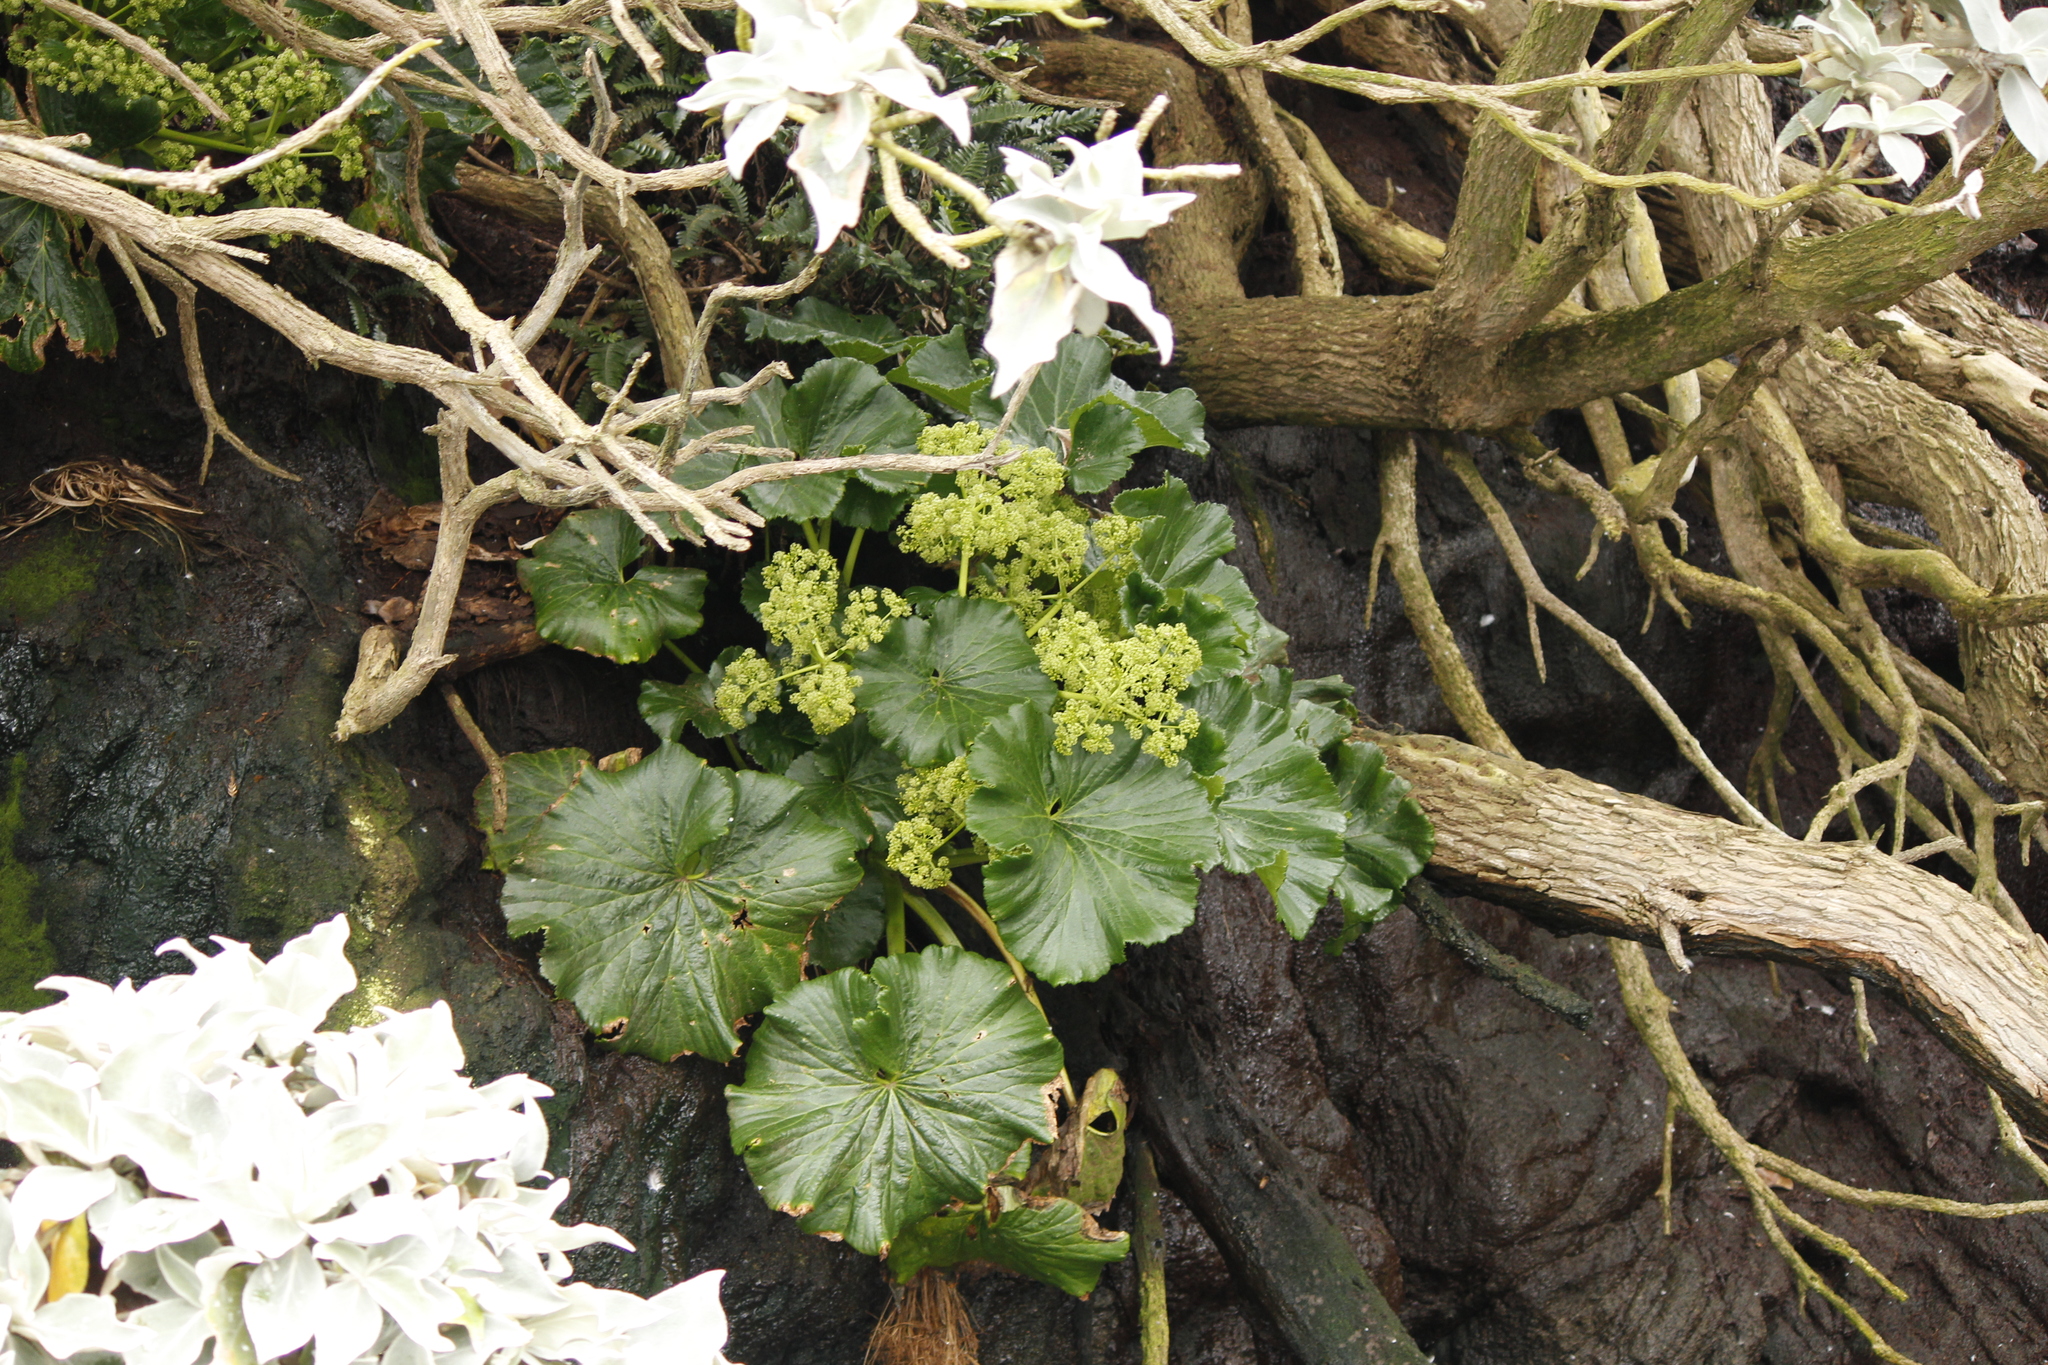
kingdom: Plantae
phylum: Tracheophyta
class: Magnoliopsida
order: Apiales
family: Apiaceae
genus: Azorella
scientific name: Azorella robusta
